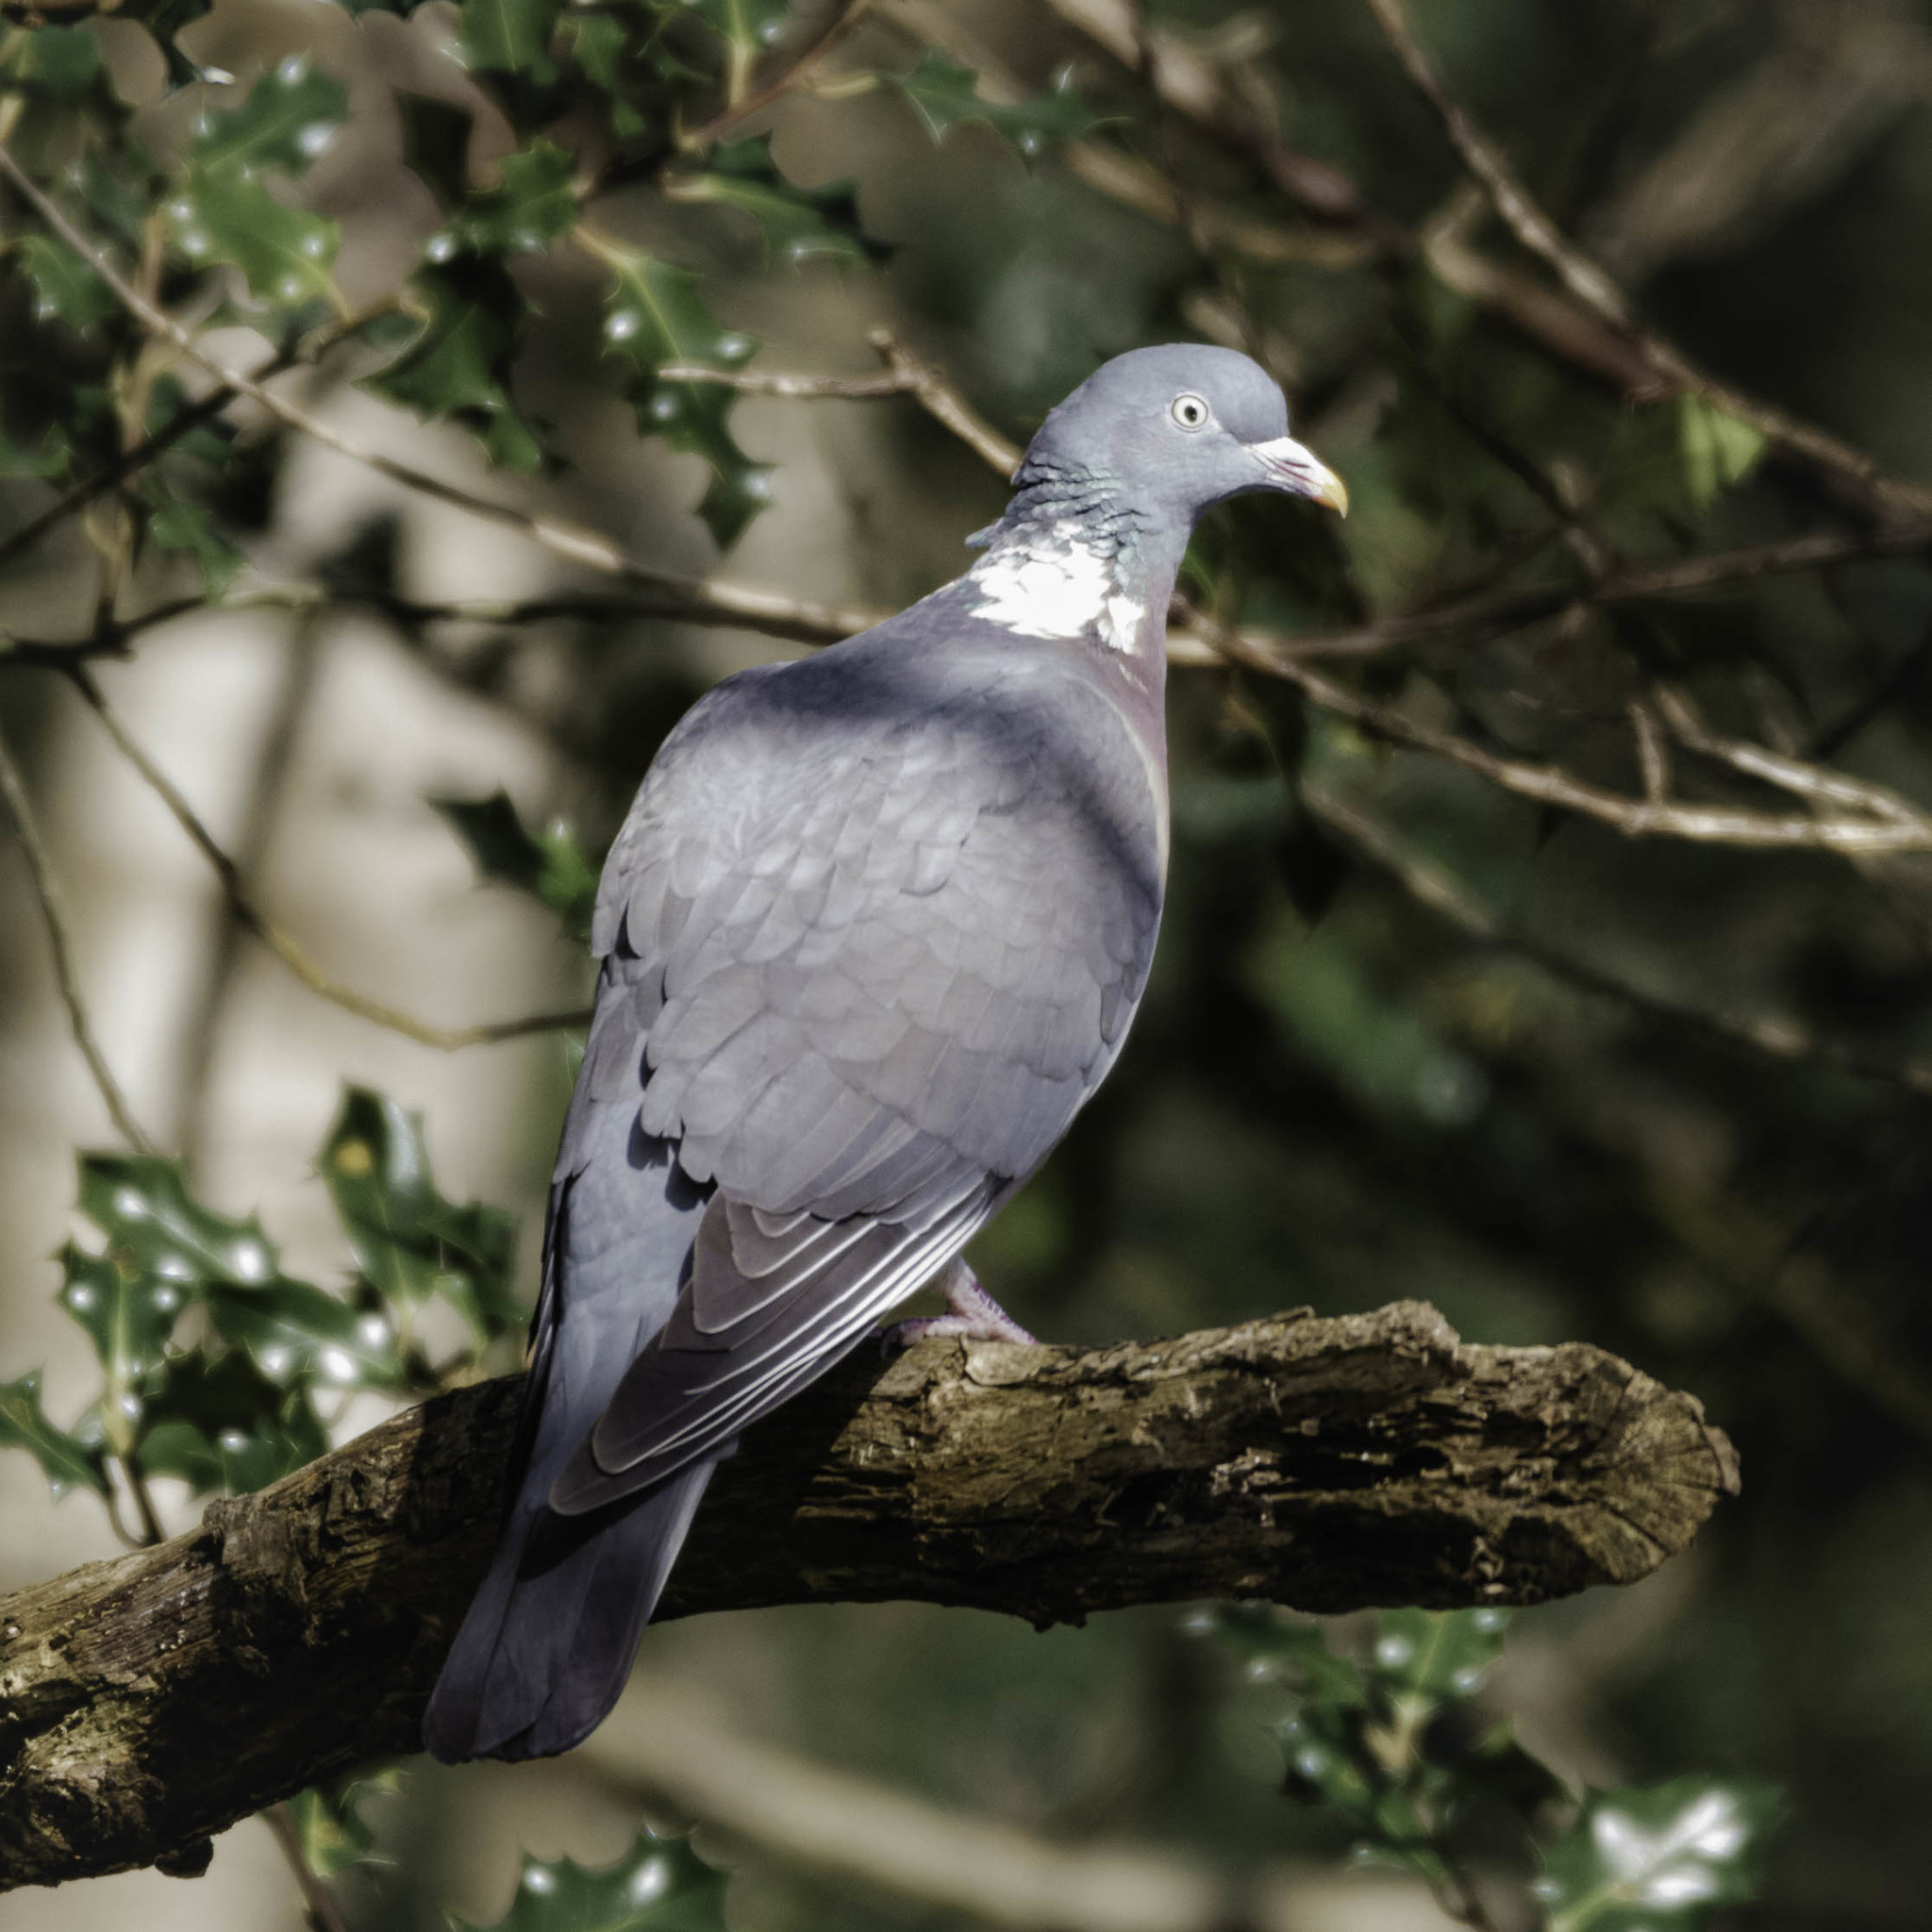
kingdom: Animalia
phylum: Chordata
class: Aves
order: Columbiformes
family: Columbidae
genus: Columba
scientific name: Columba palumbus
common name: Common wood pigeon
